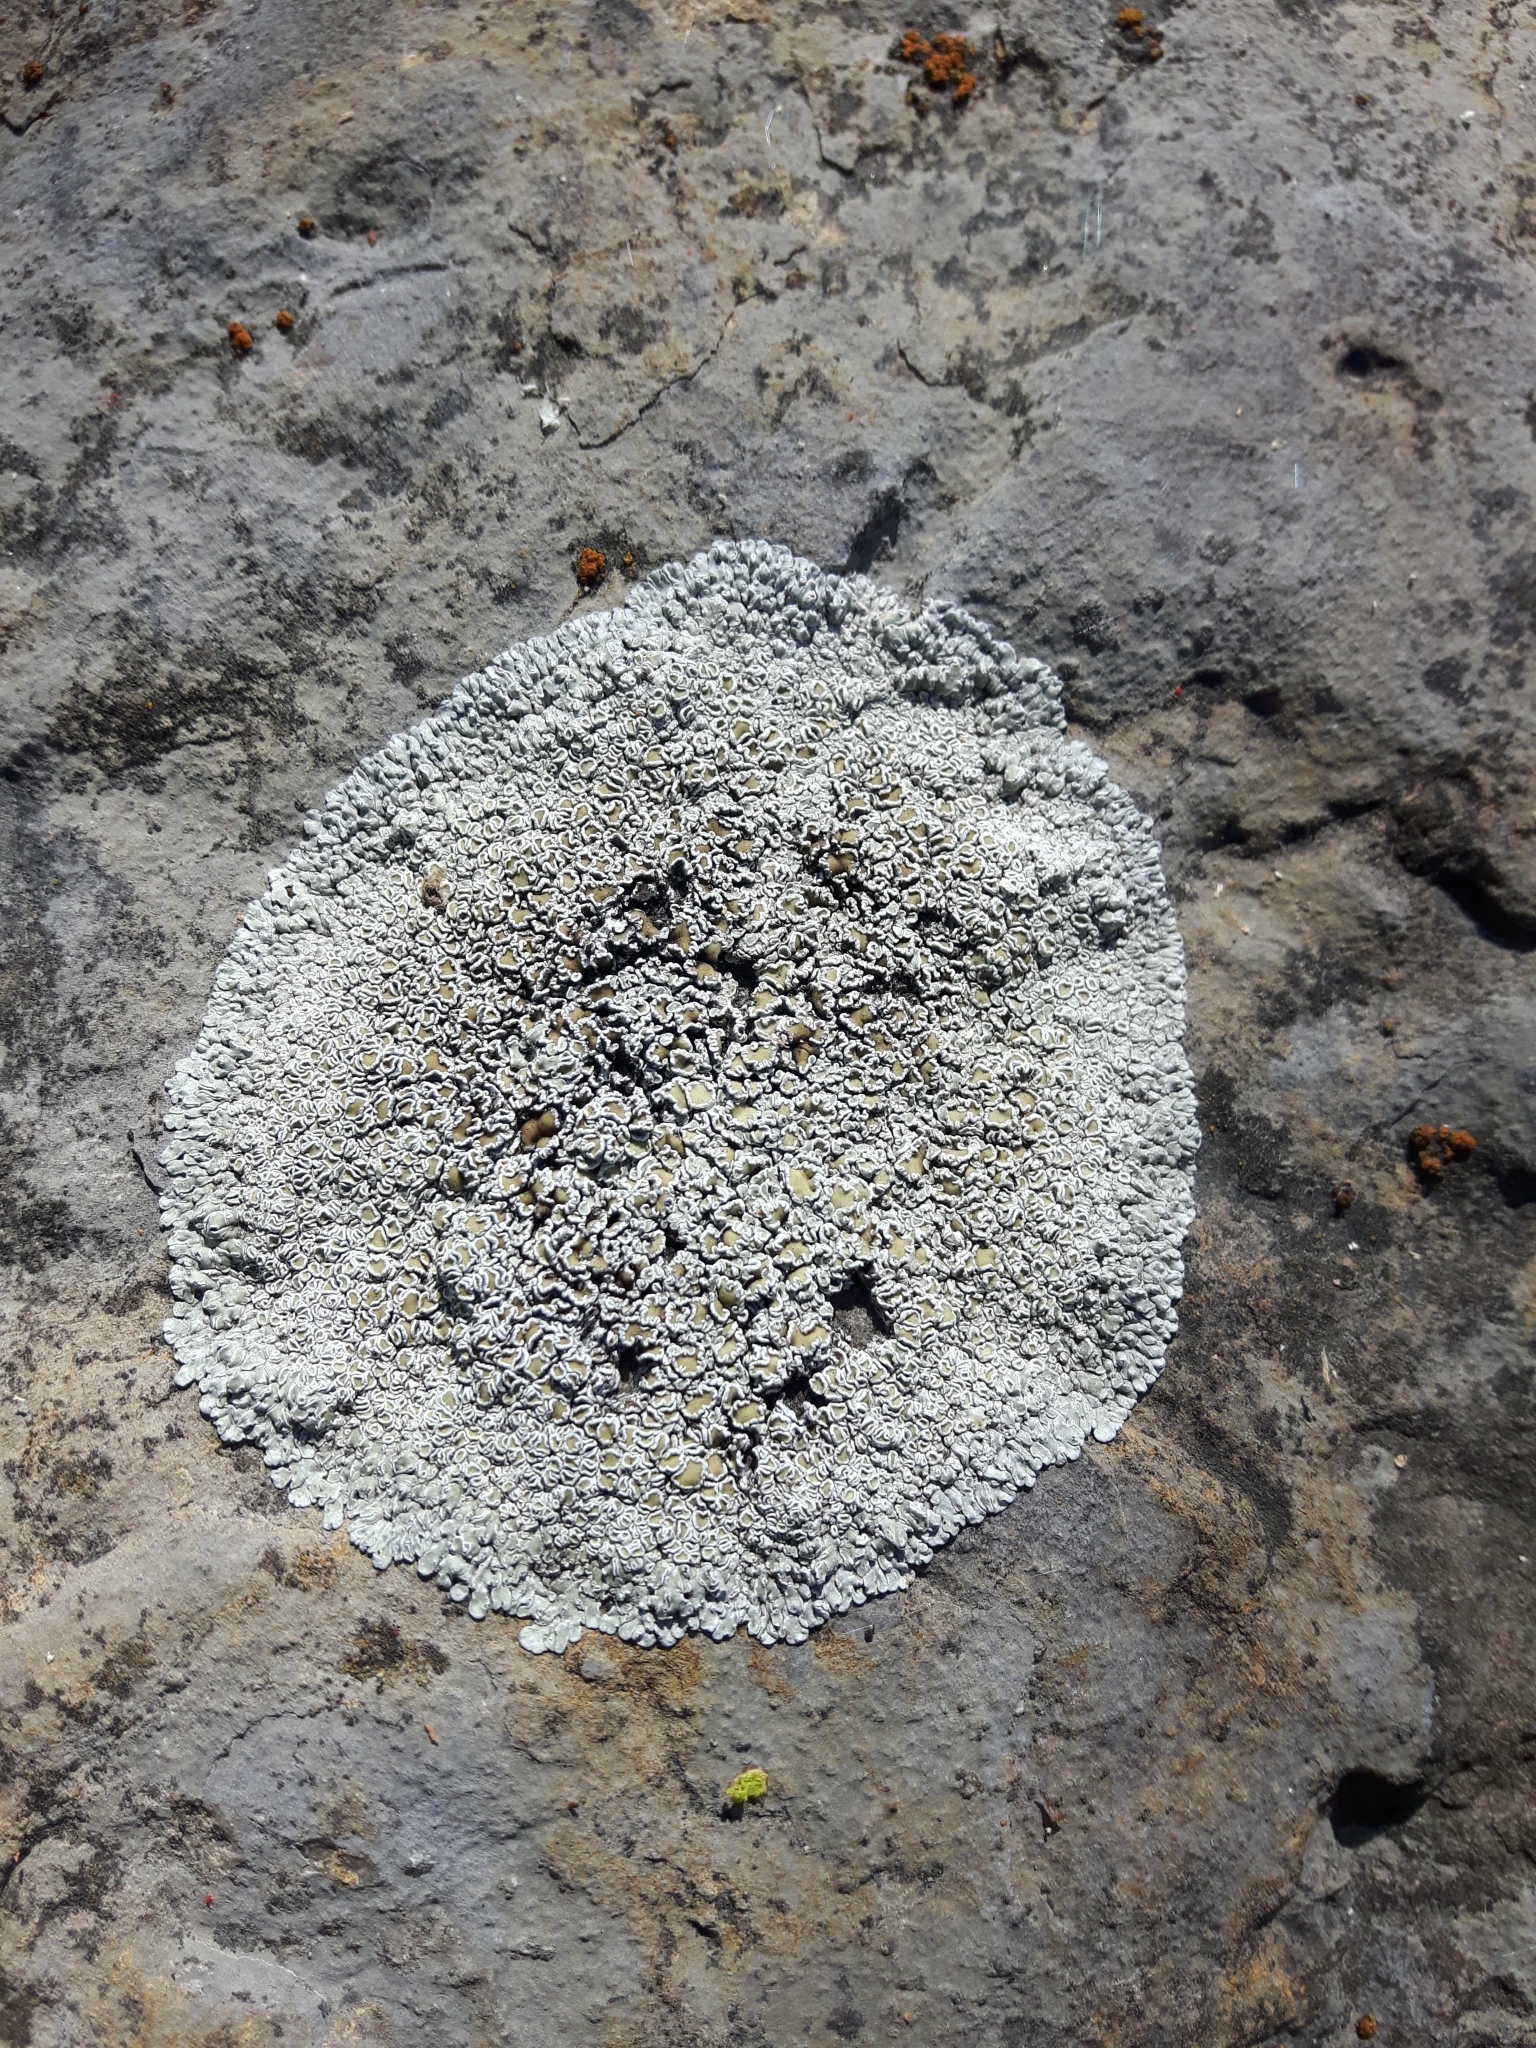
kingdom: Fungi
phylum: Ascomycota
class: Lecanoromycetes
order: Lecanorales
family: Lecanoraceae
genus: Protoparmeliopsis
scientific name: Protoparmeliopsis muralis
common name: Stonewall rim lichen
